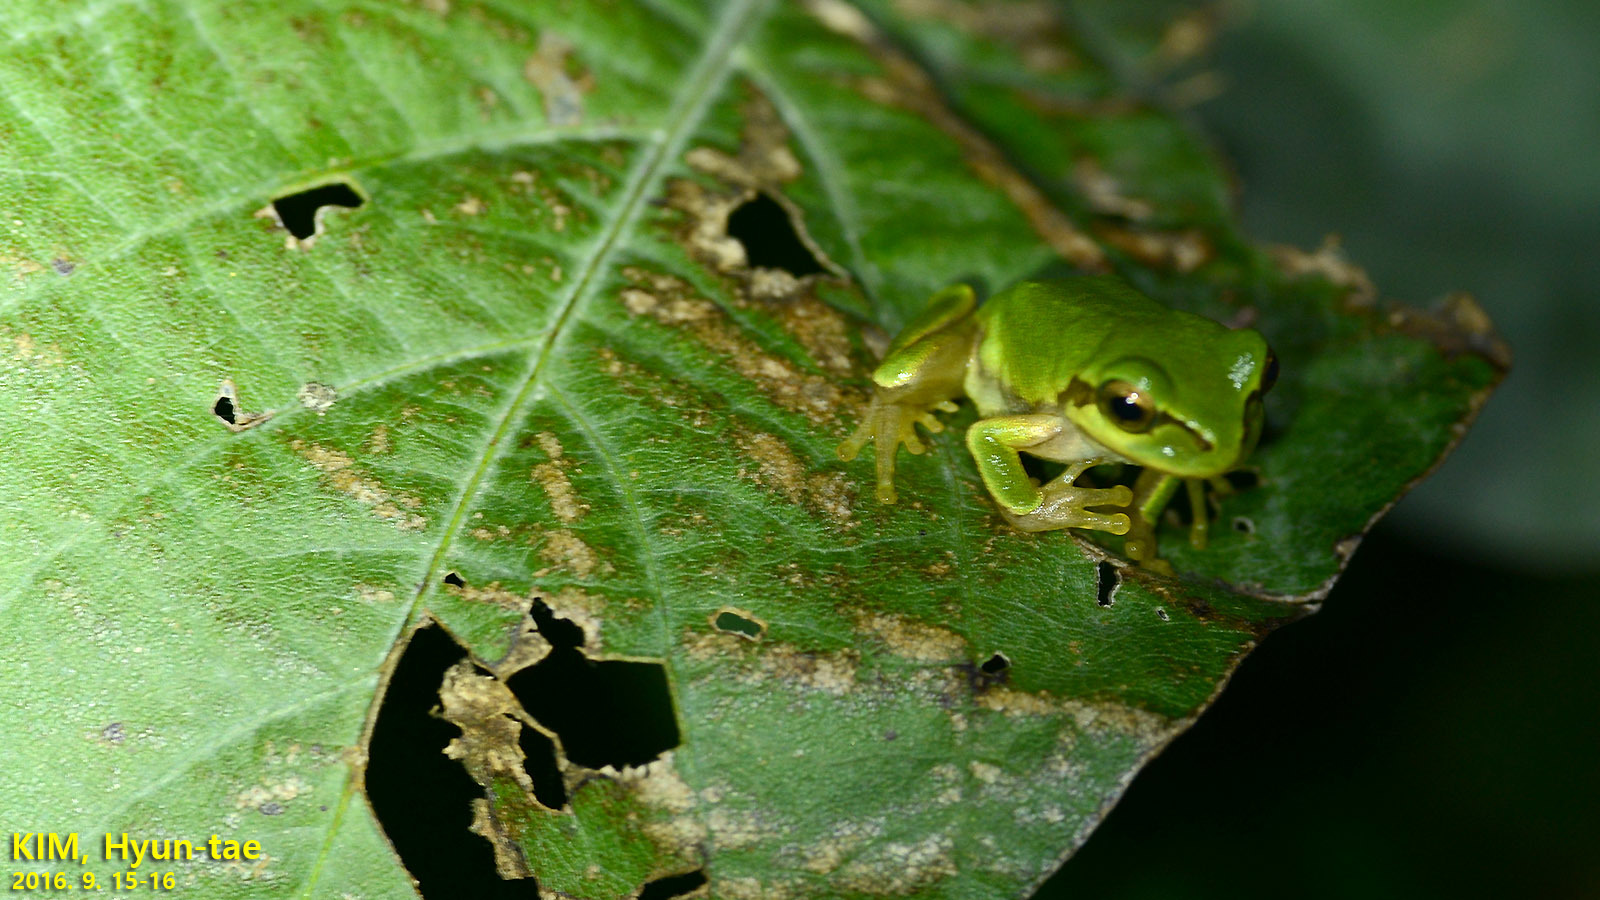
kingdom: Animalia
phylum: Chordata
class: Amphibia
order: Anura
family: Hylidae
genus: Dryophytes
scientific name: Dryophytes japonicus
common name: Japanese treefrog
